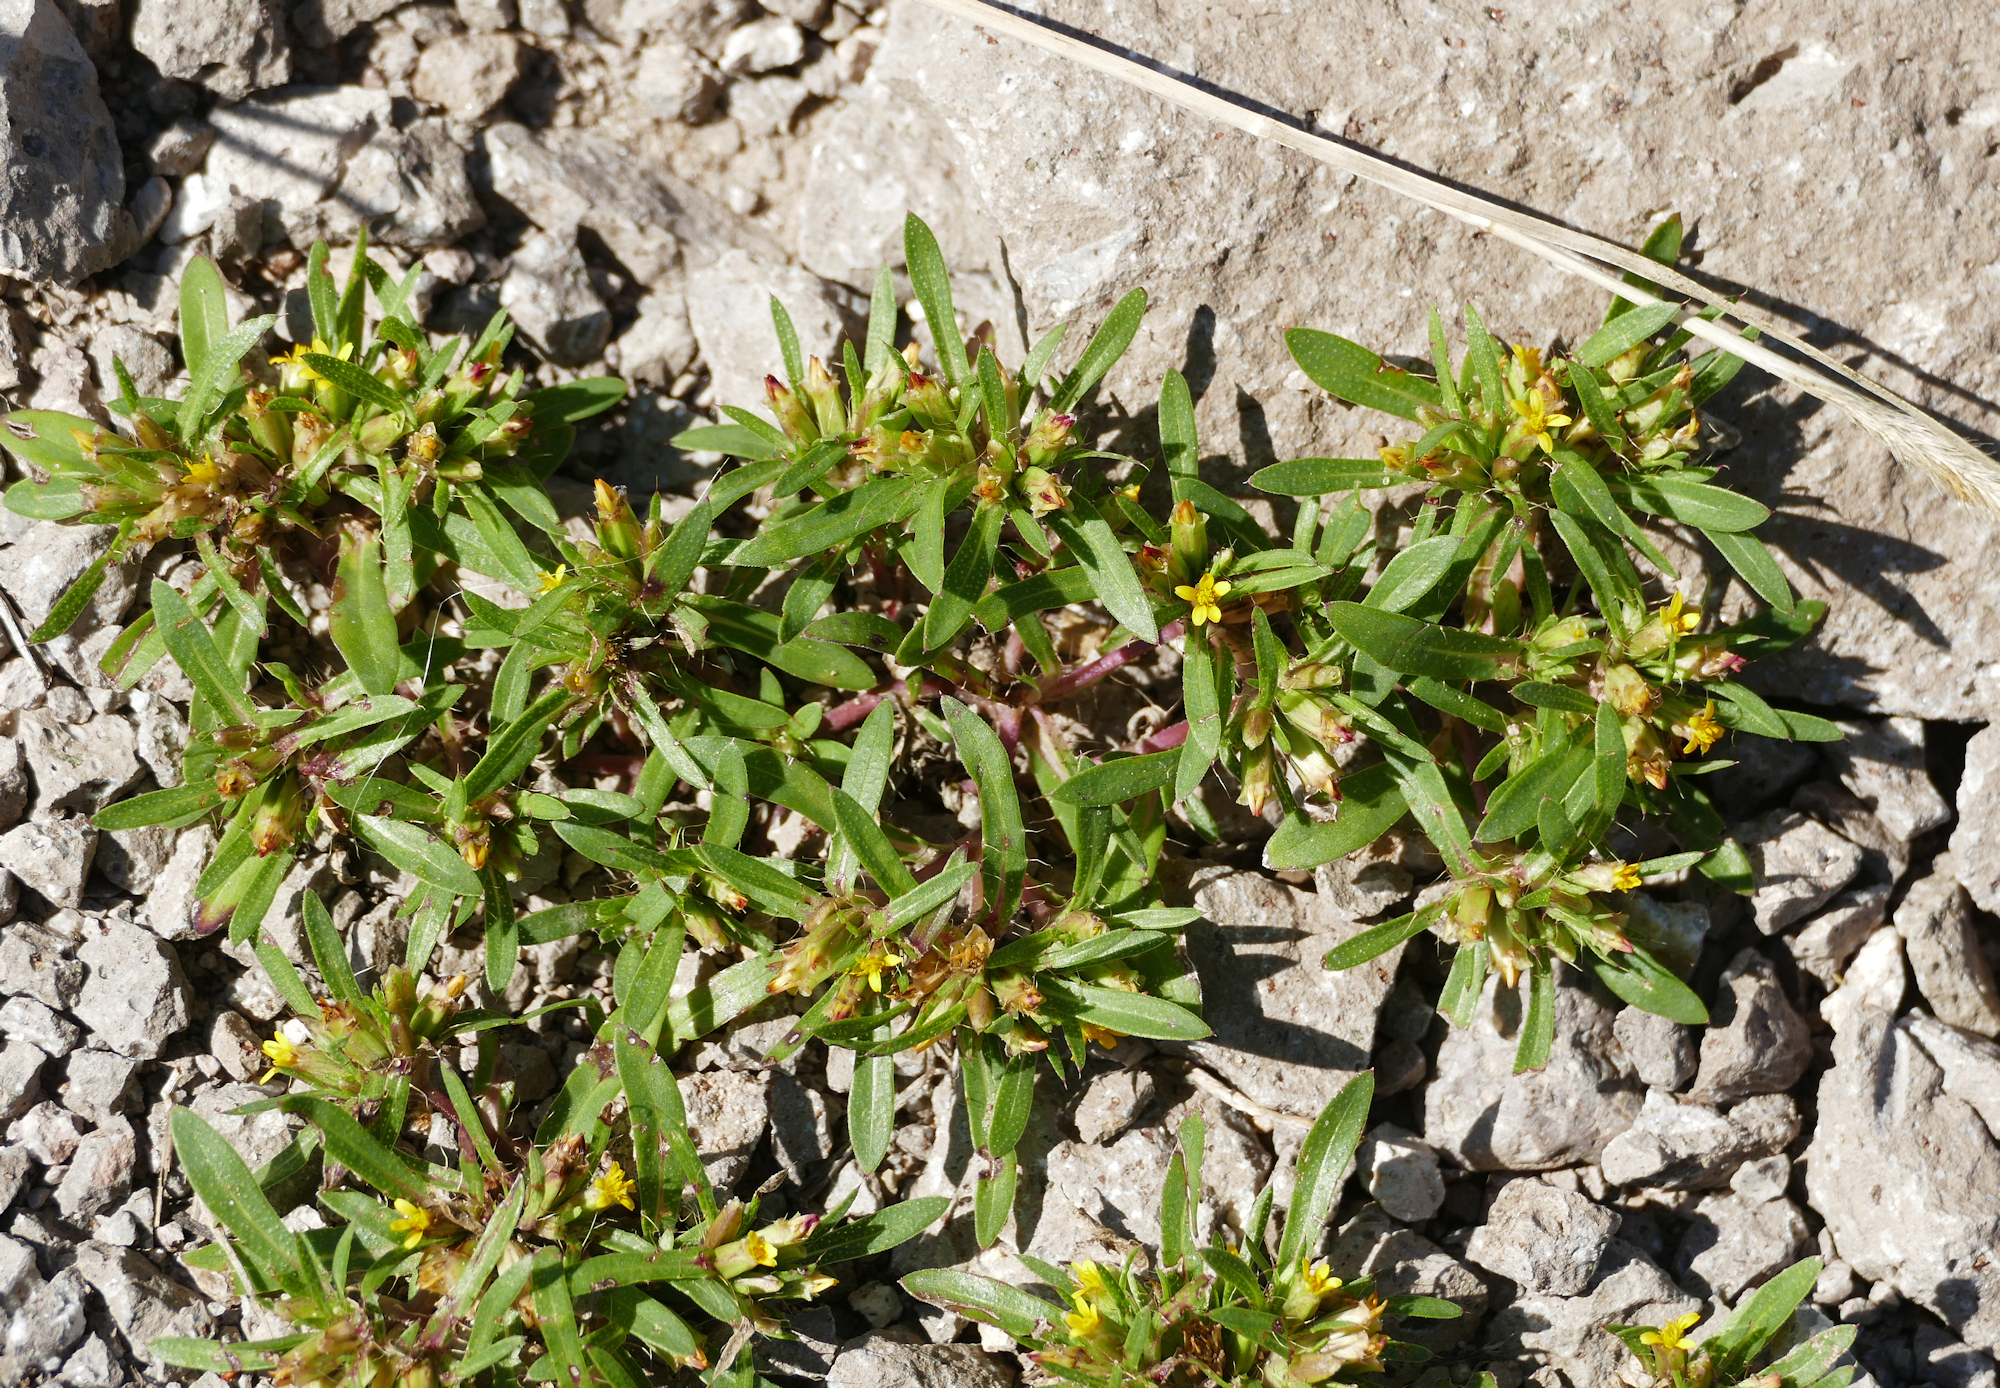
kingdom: Plantae
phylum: Tracheophyta
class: Magnoliopsida
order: Asterales
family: Asteraceae
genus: Pectis
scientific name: Pectis prostrata
